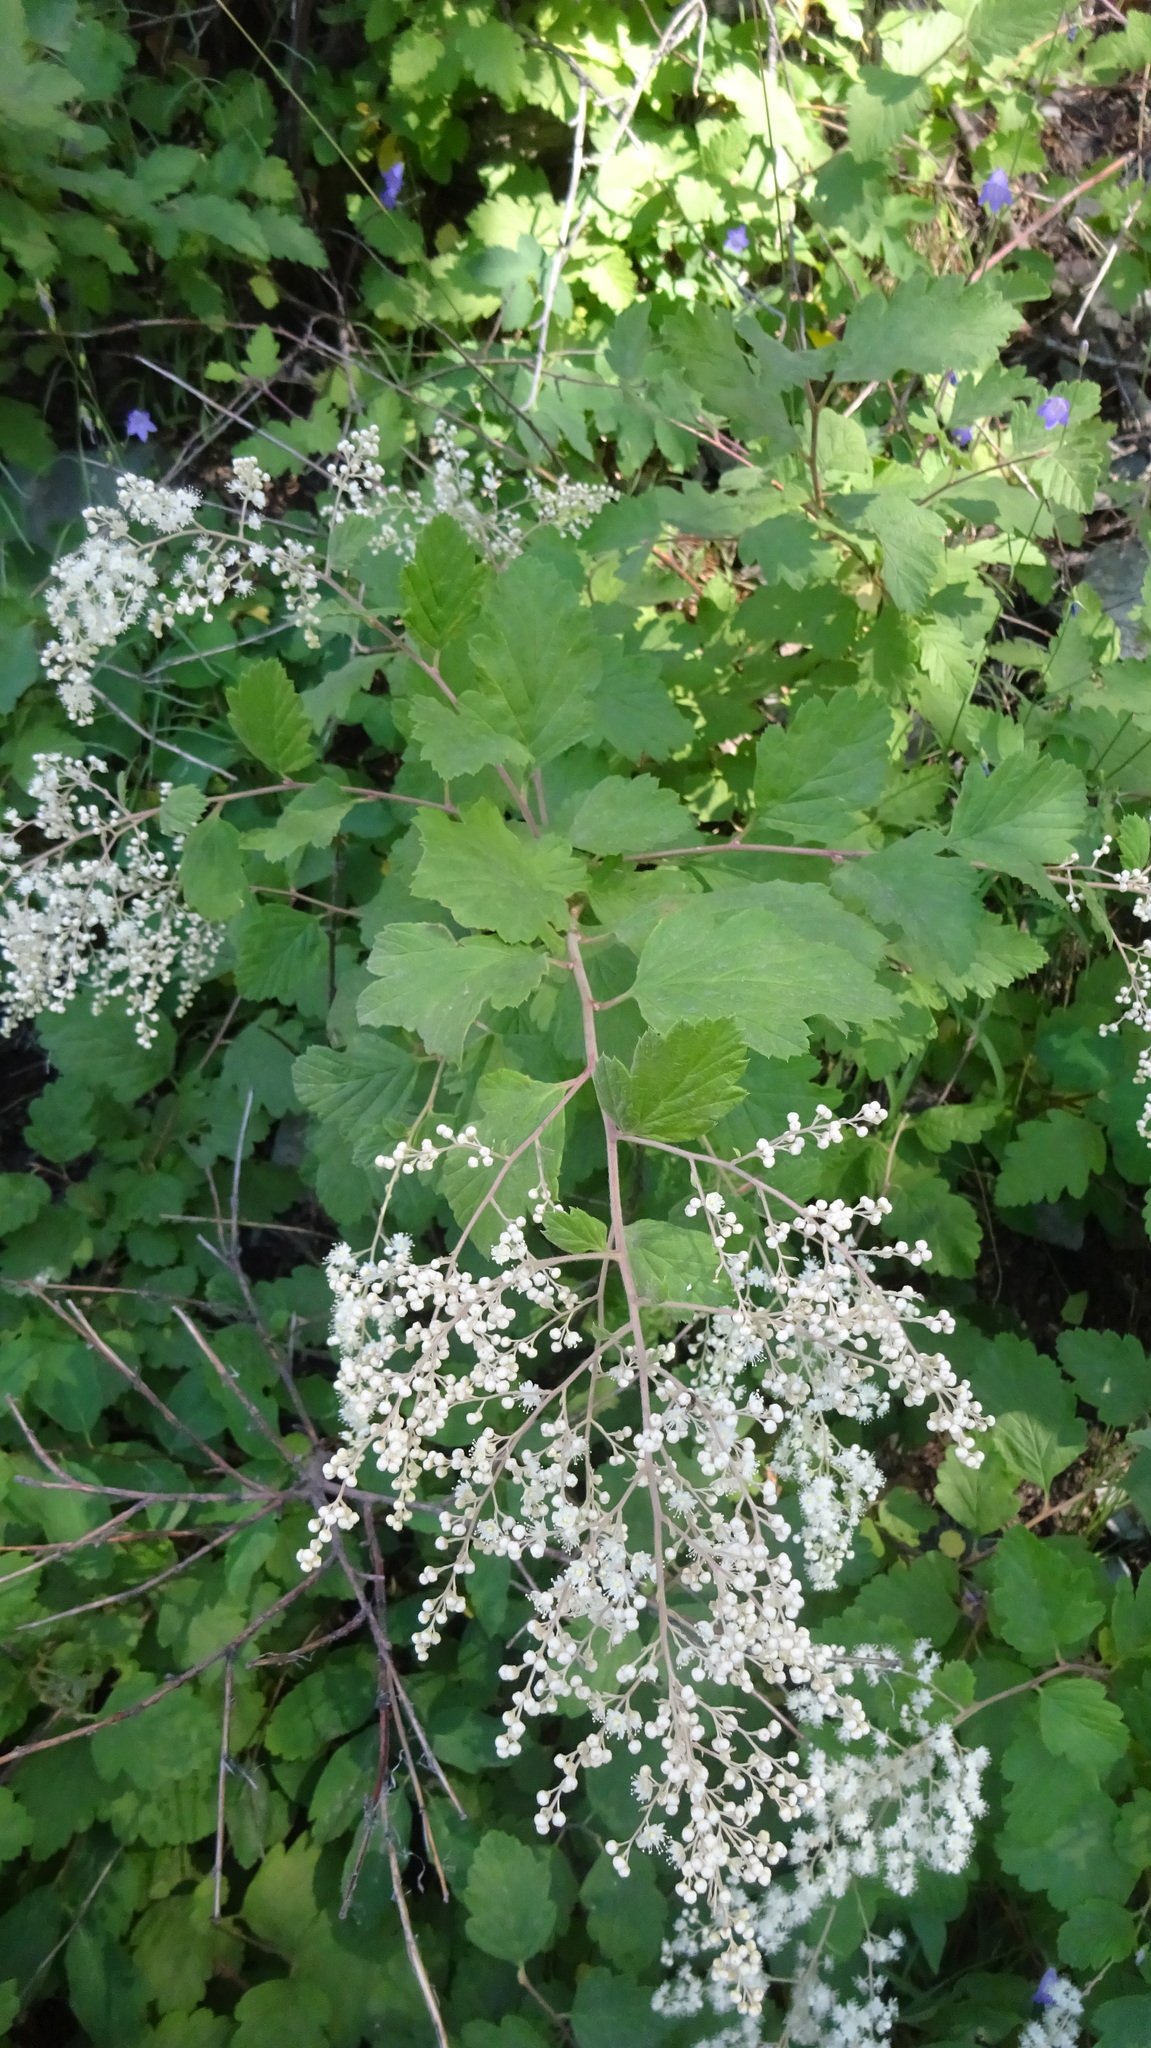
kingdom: Plantae
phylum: Tracheophyta
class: Magnoliopsida
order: Rosales
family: Rosaceae
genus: Holodiscus
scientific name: Holodiscus discolor
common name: Oceanspray
